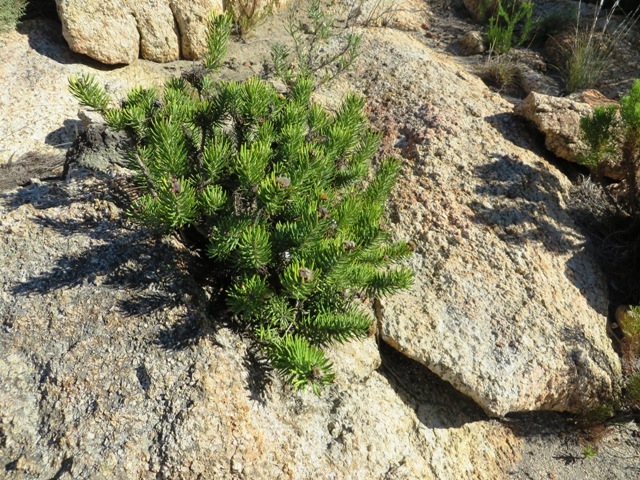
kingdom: Plantae
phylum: Tracheophyta
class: Magnoliopsida
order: Asterales
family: Asteraceae
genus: Heterolepis
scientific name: Heterolepis aliena
